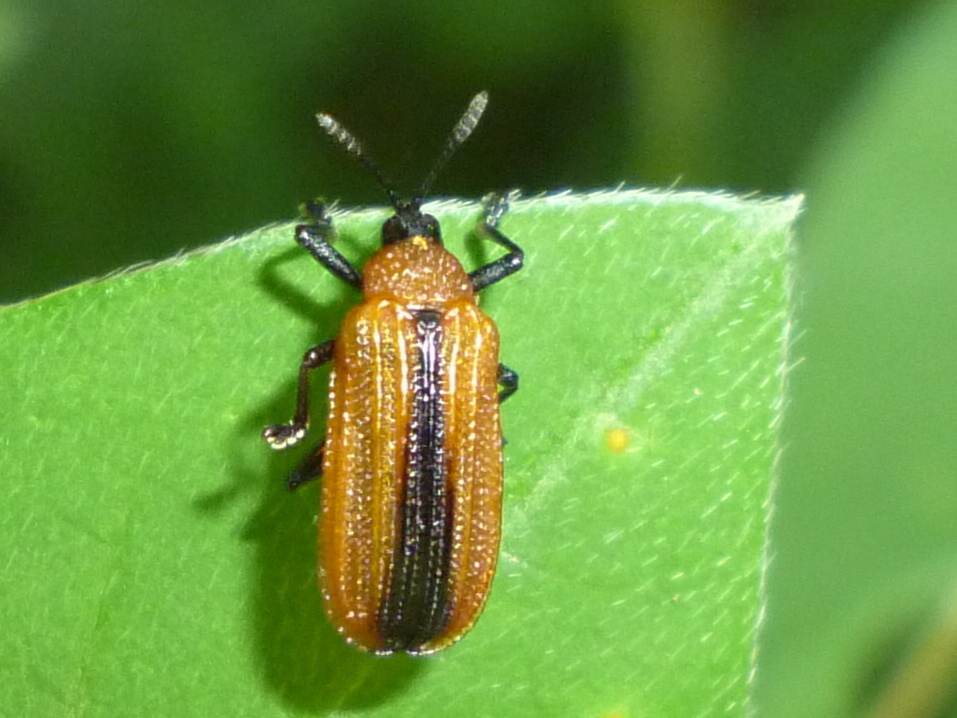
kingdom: Animalia
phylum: Arthropoda
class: Insecta
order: Coleoptera
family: Chrysomelidae
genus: Odontota
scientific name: Odontota dorsalis
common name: Locust leaf-miner beetle
